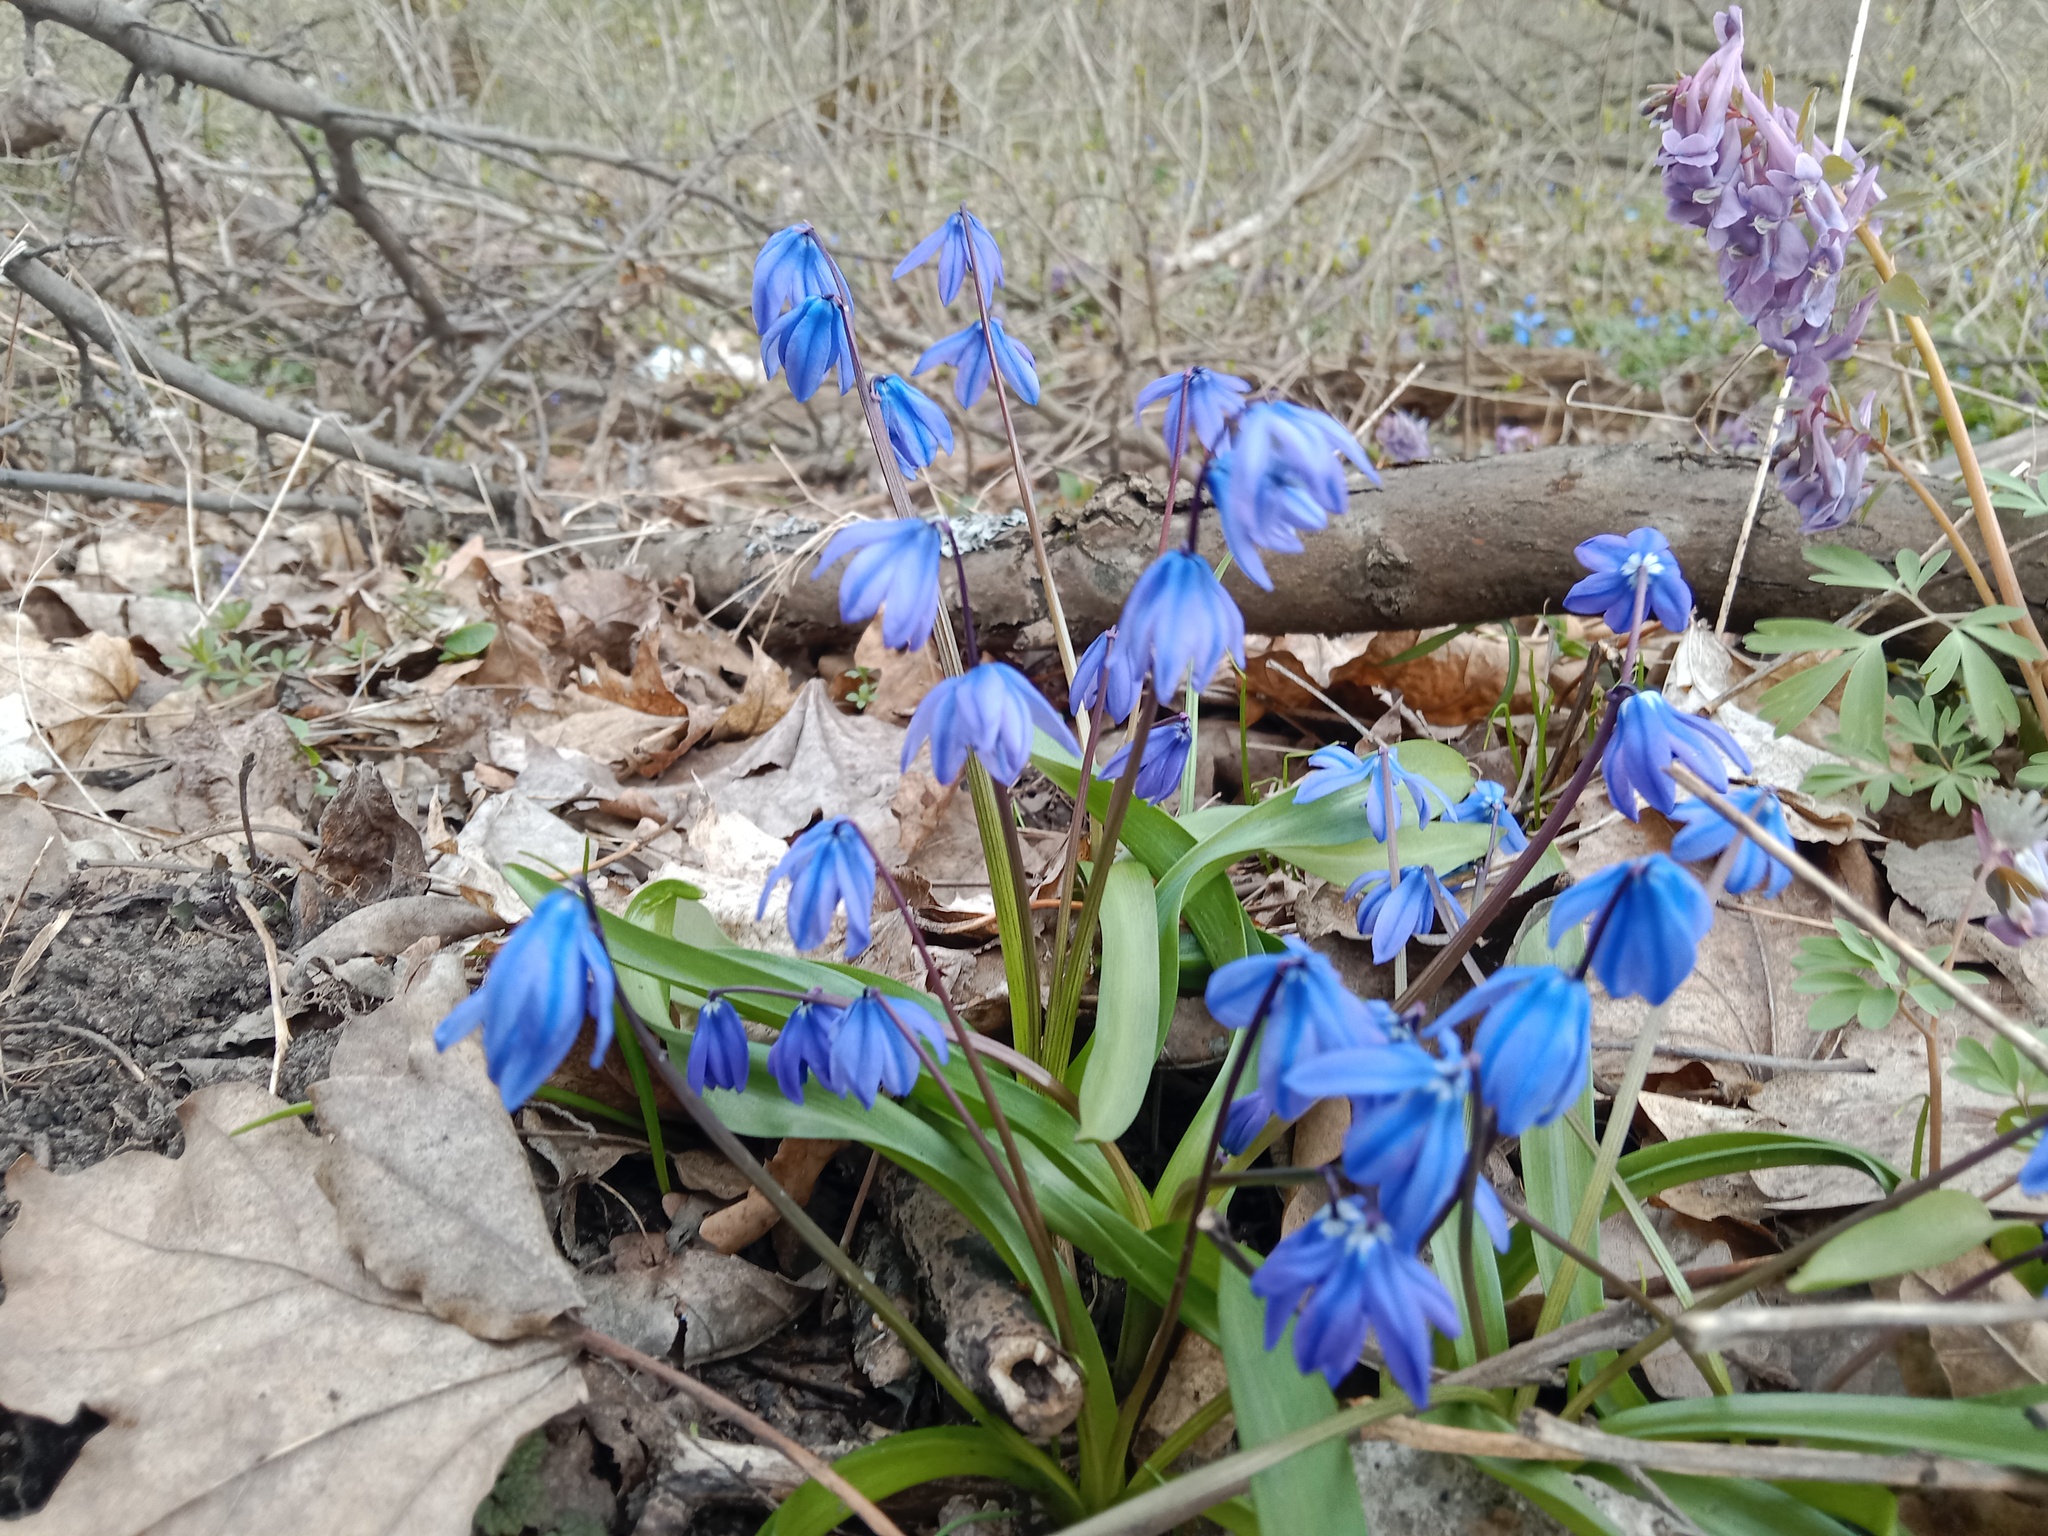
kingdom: Plantae
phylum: Tracheophyta
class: Liliopsida
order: Asparagales
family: Asparagaceae
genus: Scilla
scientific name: Scilla siberica
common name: Siberian squill
